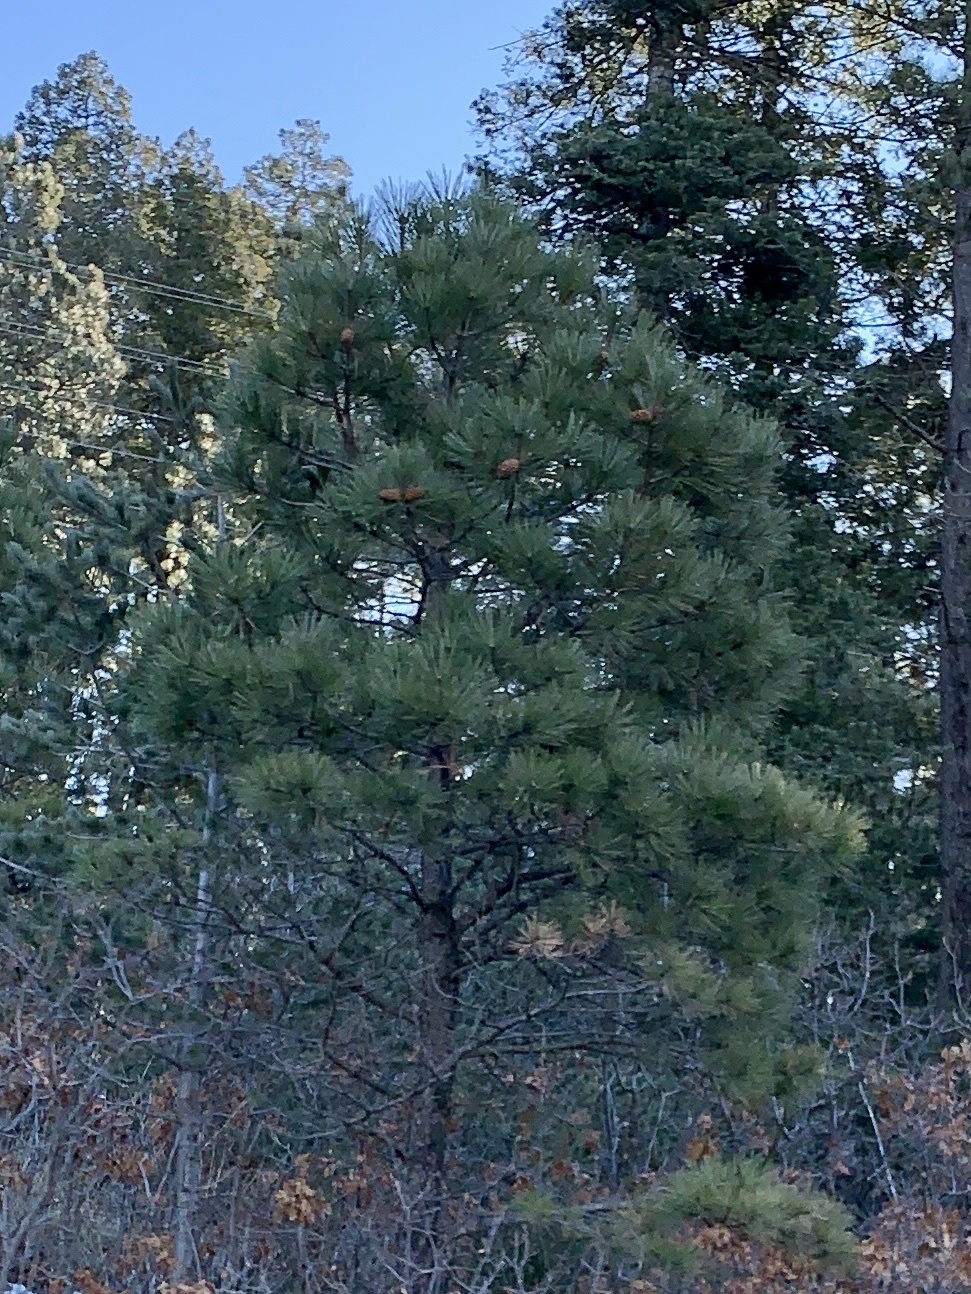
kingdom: Plantae
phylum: Tracheophyta
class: Pinopsida
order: Pinales
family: Pinaceae
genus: Pinus
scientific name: Pinus ponderosa
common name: Western yellow-pine
